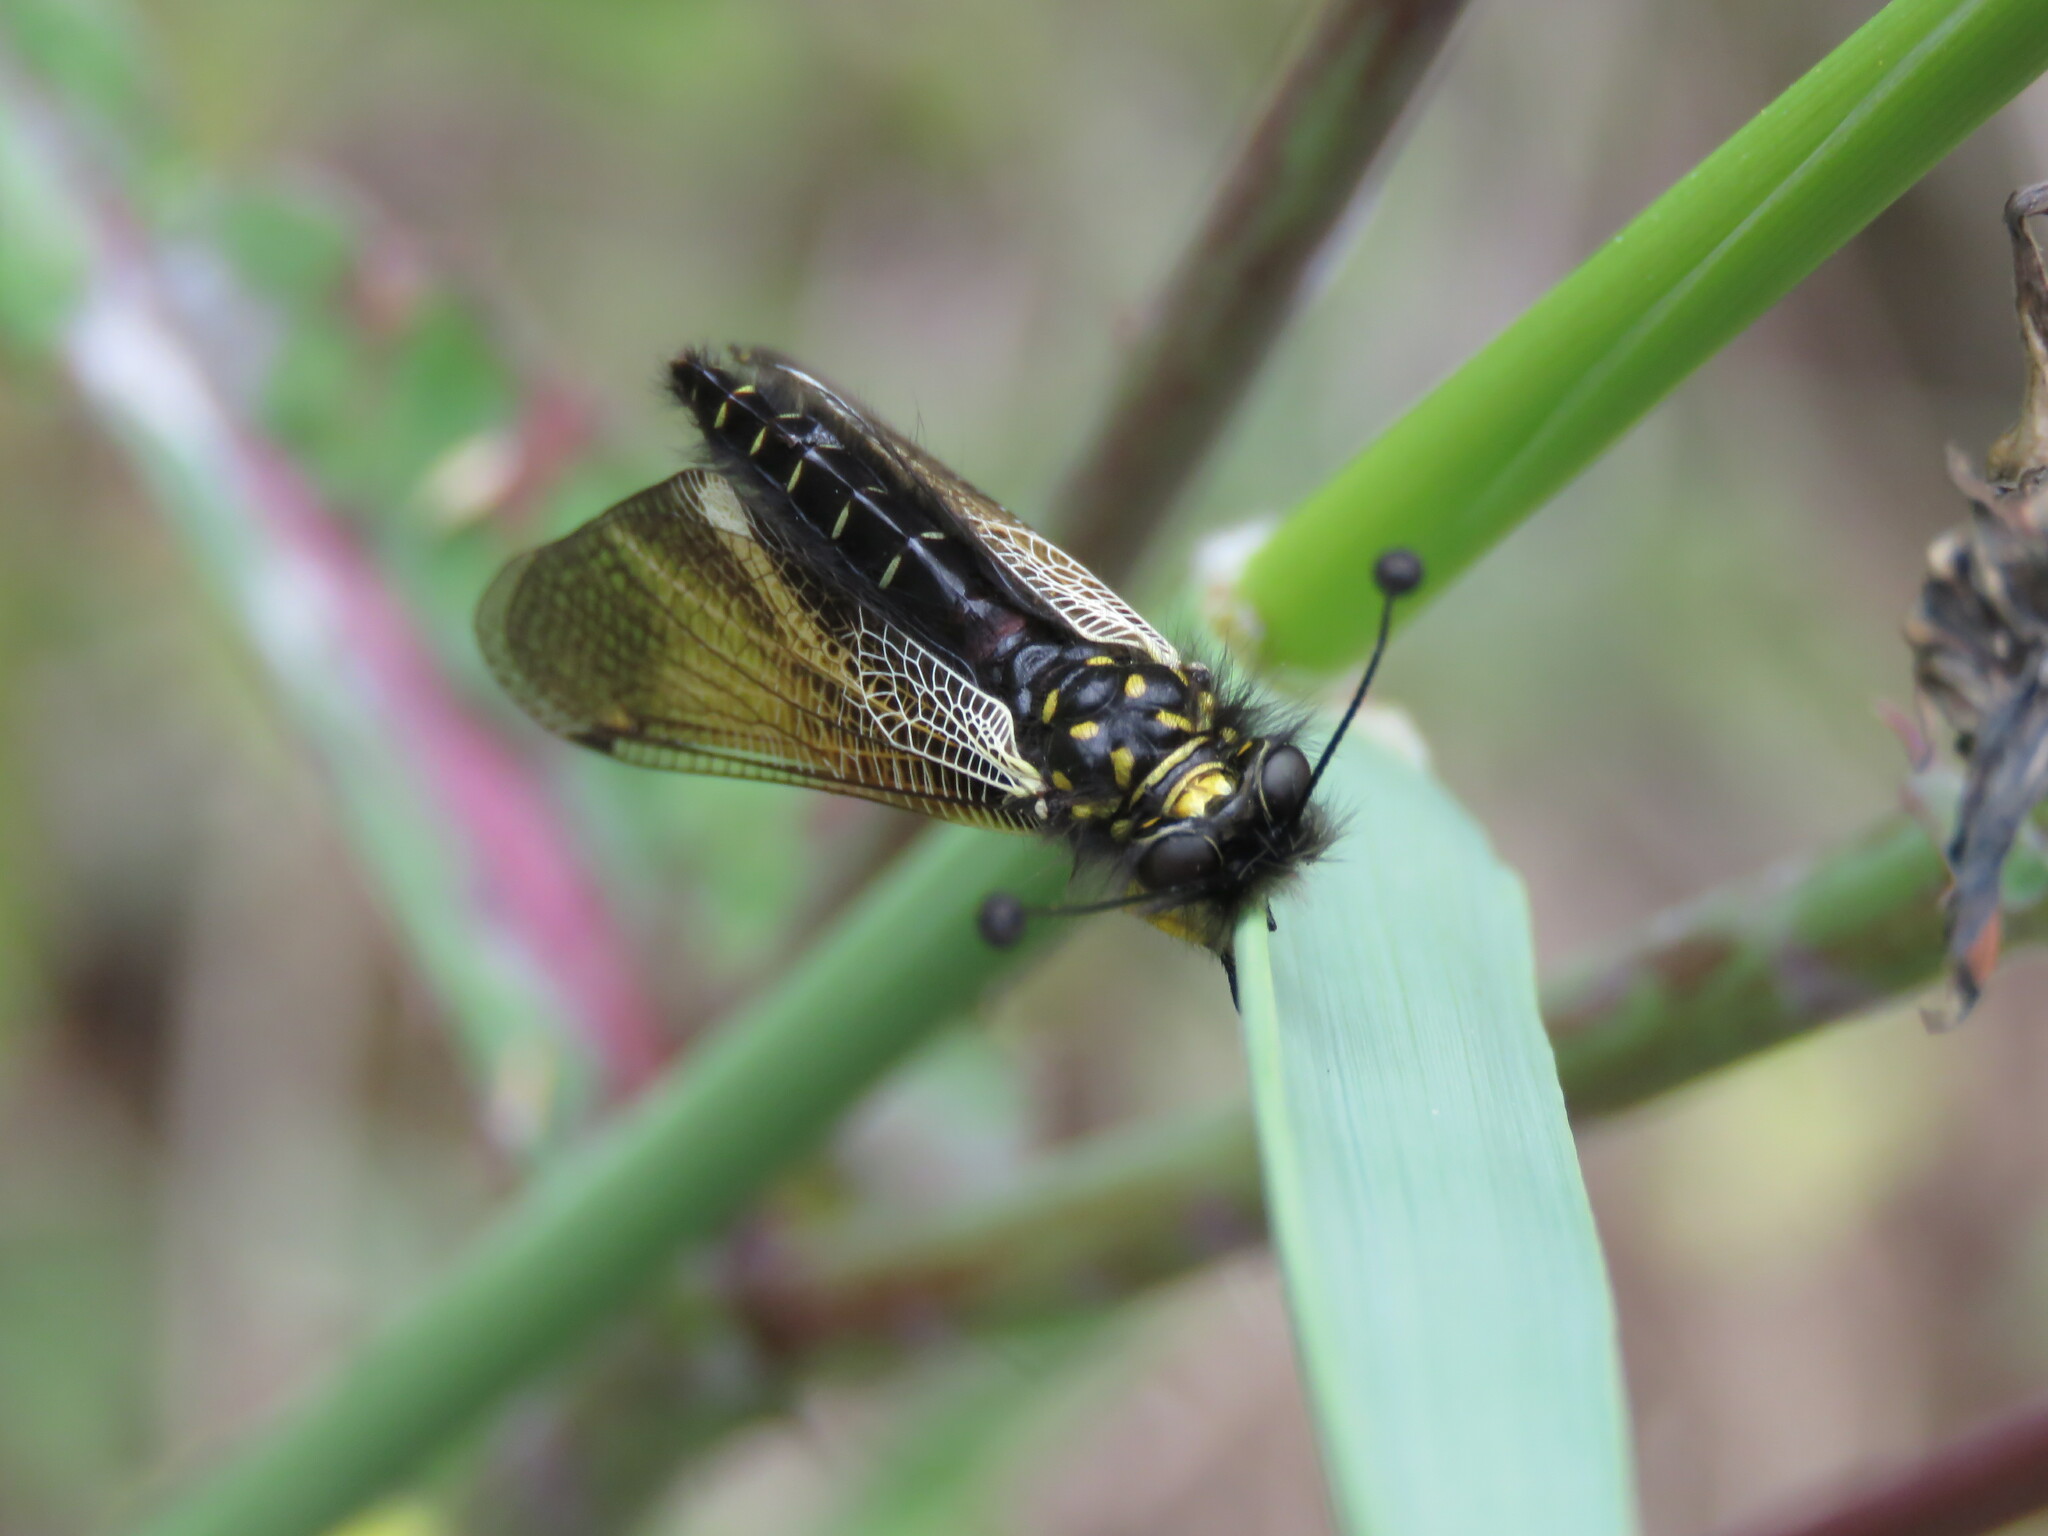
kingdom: Animalia
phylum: Arthropoda
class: Insecta
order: Neuroptera
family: Ascalaphidae
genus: Libelloides
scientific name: Libelloides hispanicus
